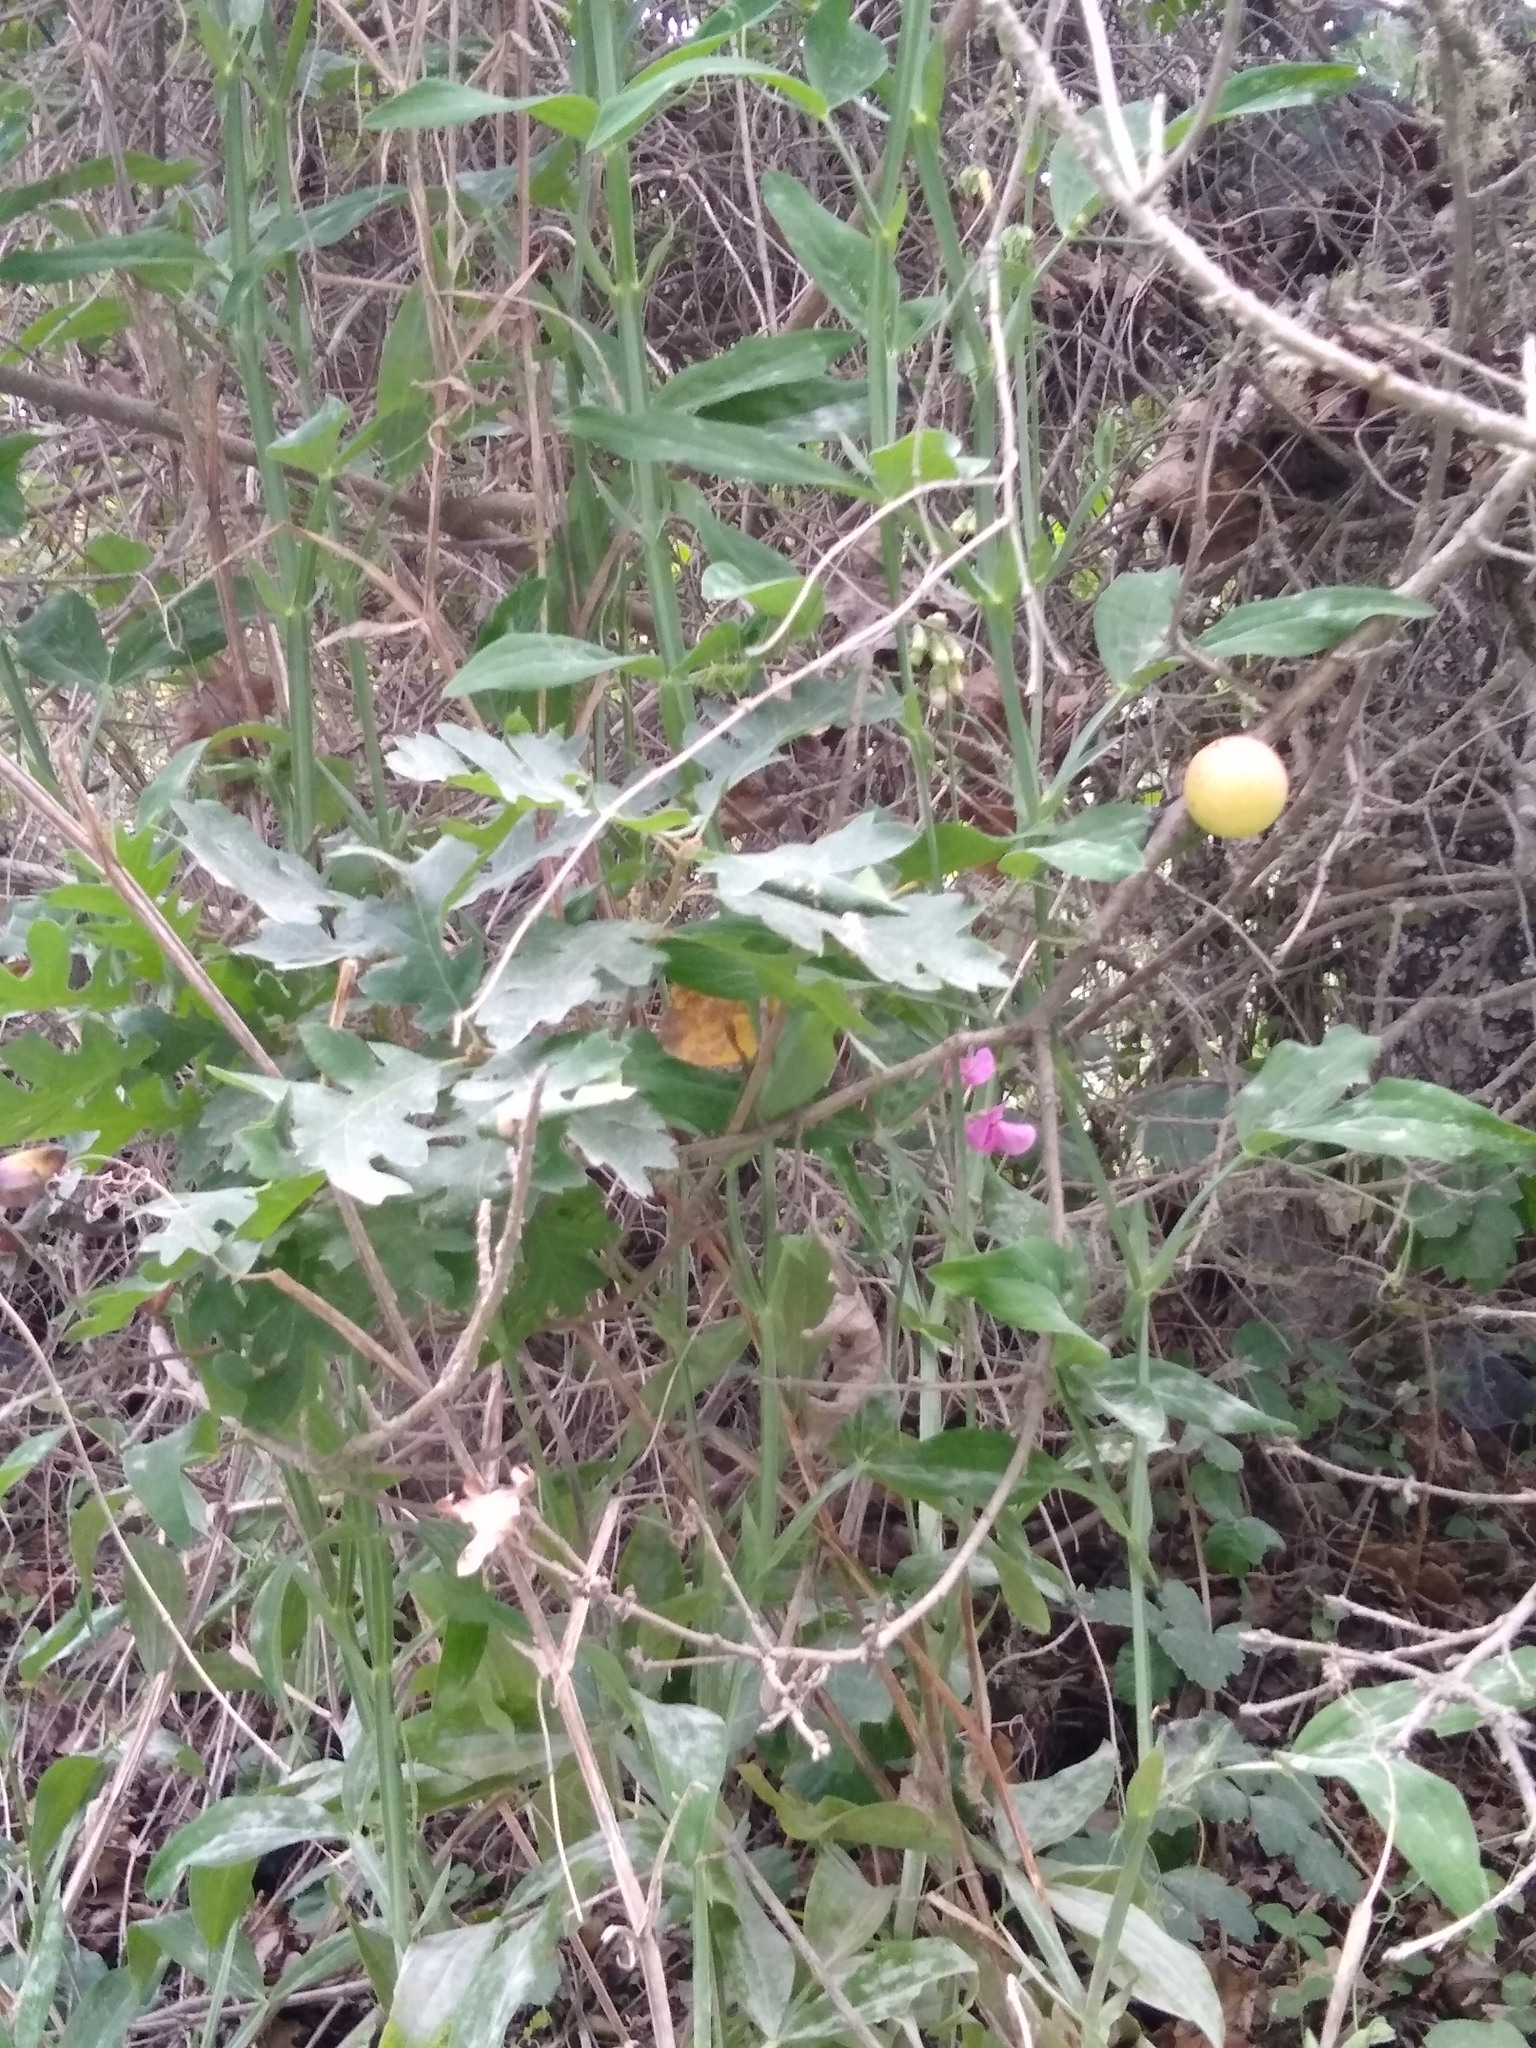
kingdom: Plantae
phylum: Tracheophyta
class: Magnoliopsida
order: Fagales
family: Fagaceae
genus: Quercus
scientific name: Quercus garryana
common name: Garry oak
